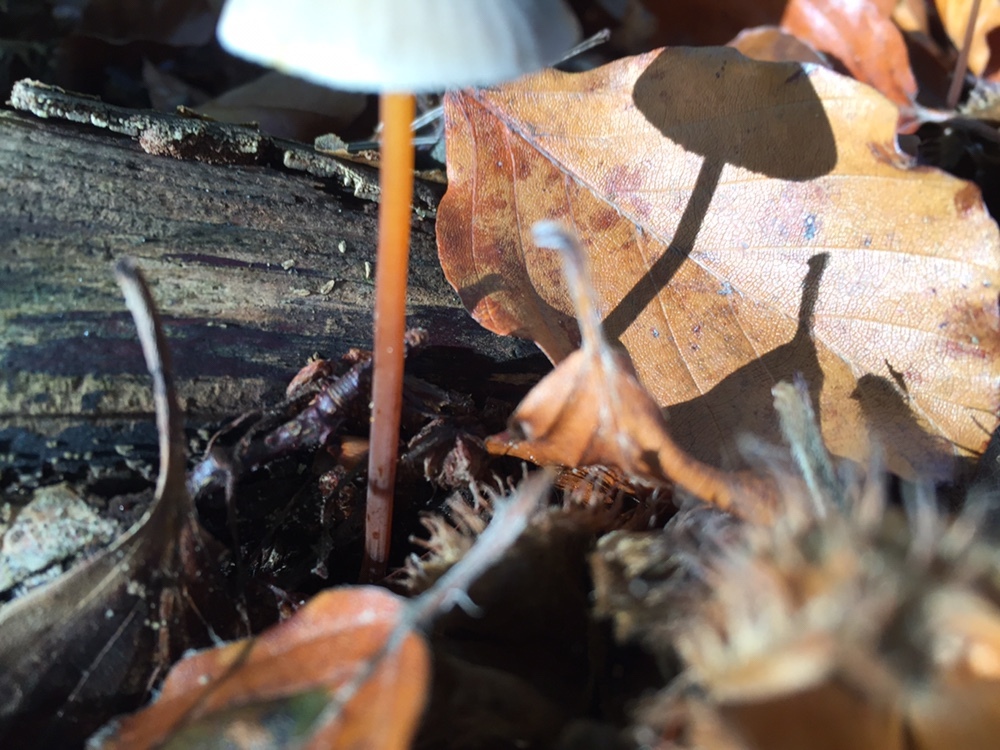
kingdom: Fungi
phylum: Basidiomycota
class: Agaricomycetes
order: Agaricales
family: Mycenaceae
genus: Mycena
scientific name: Mycena crocata
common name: Saffrondrop bonnet
